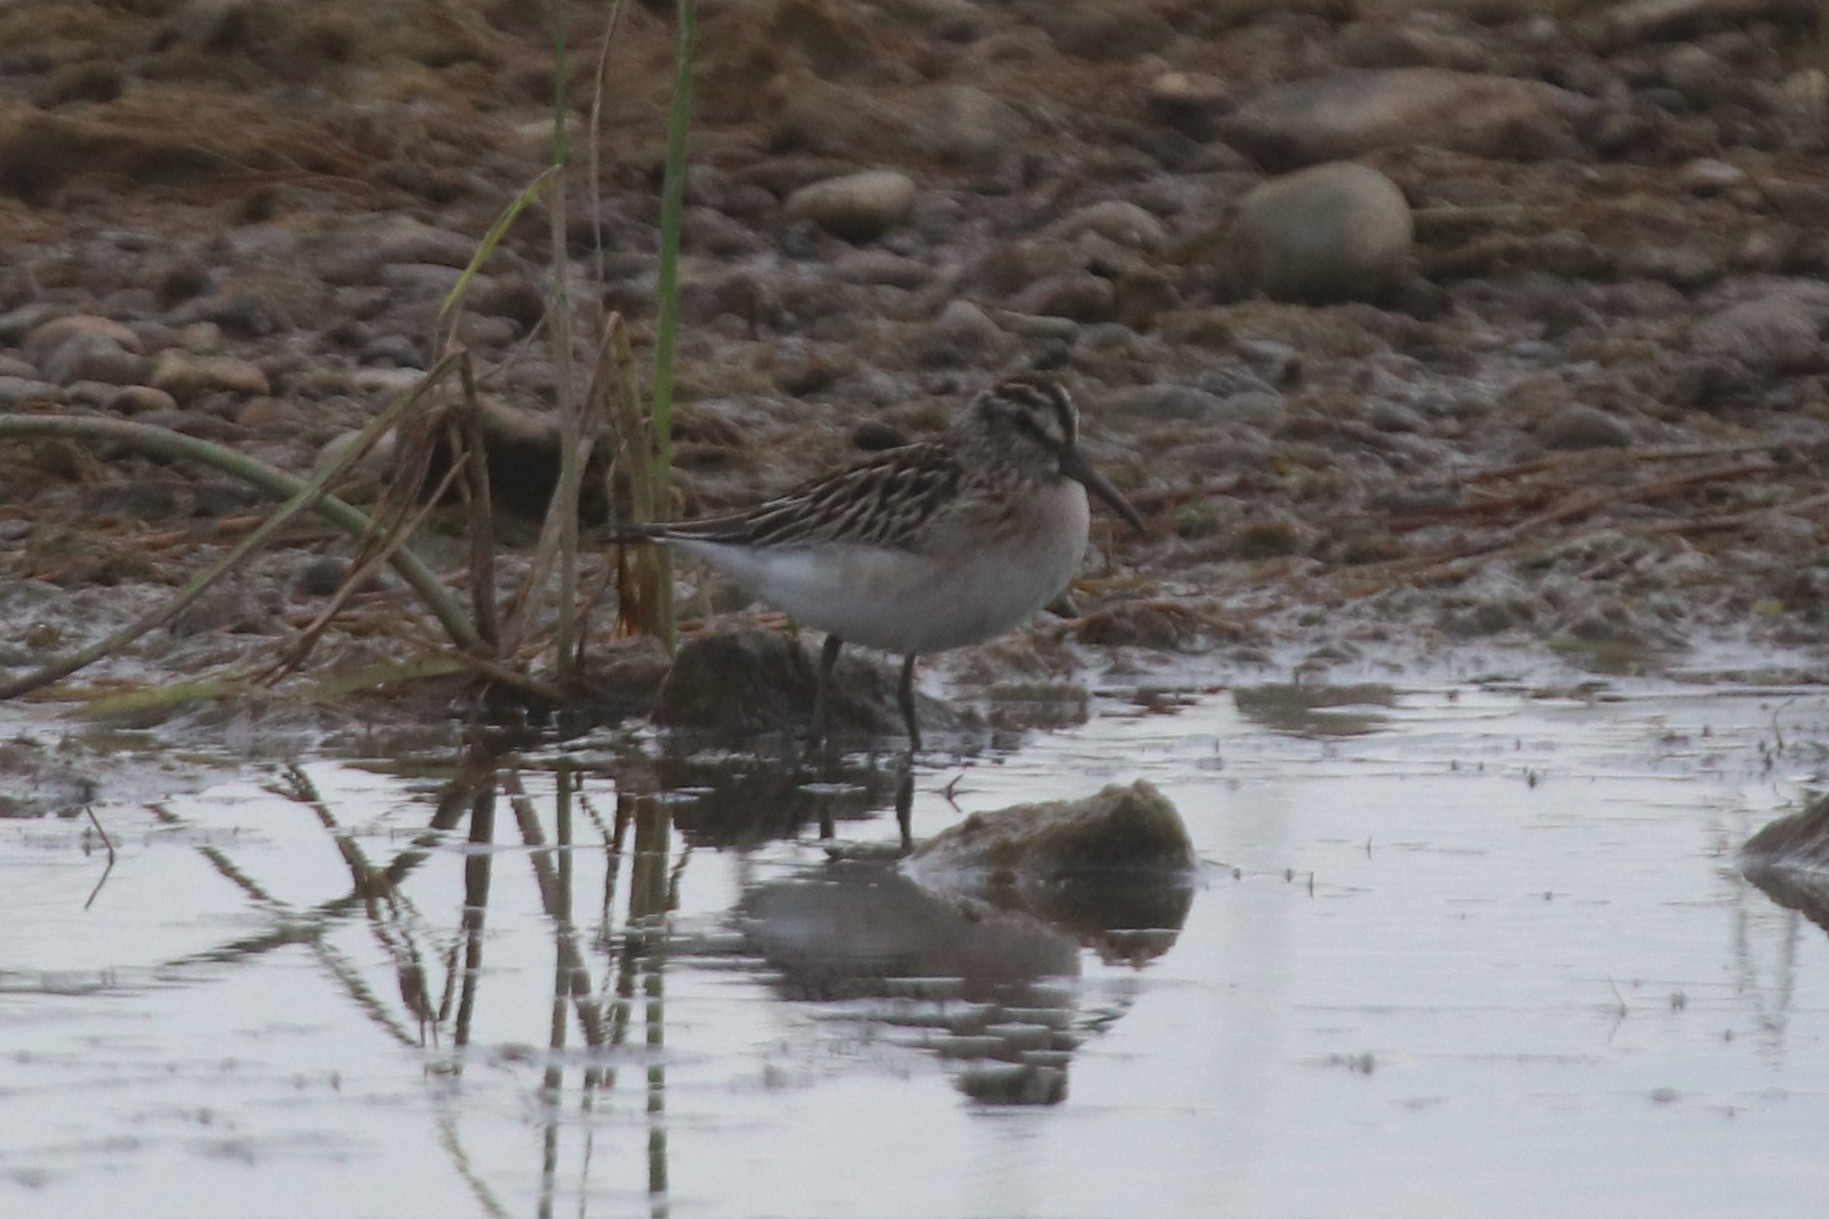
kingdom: Animalia
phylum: Chordata
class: Aves
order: Charadriiformes
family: Scolopacidae
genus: Calidris
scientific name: Calidris falcinellus
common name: Broad-billed sandpiper
